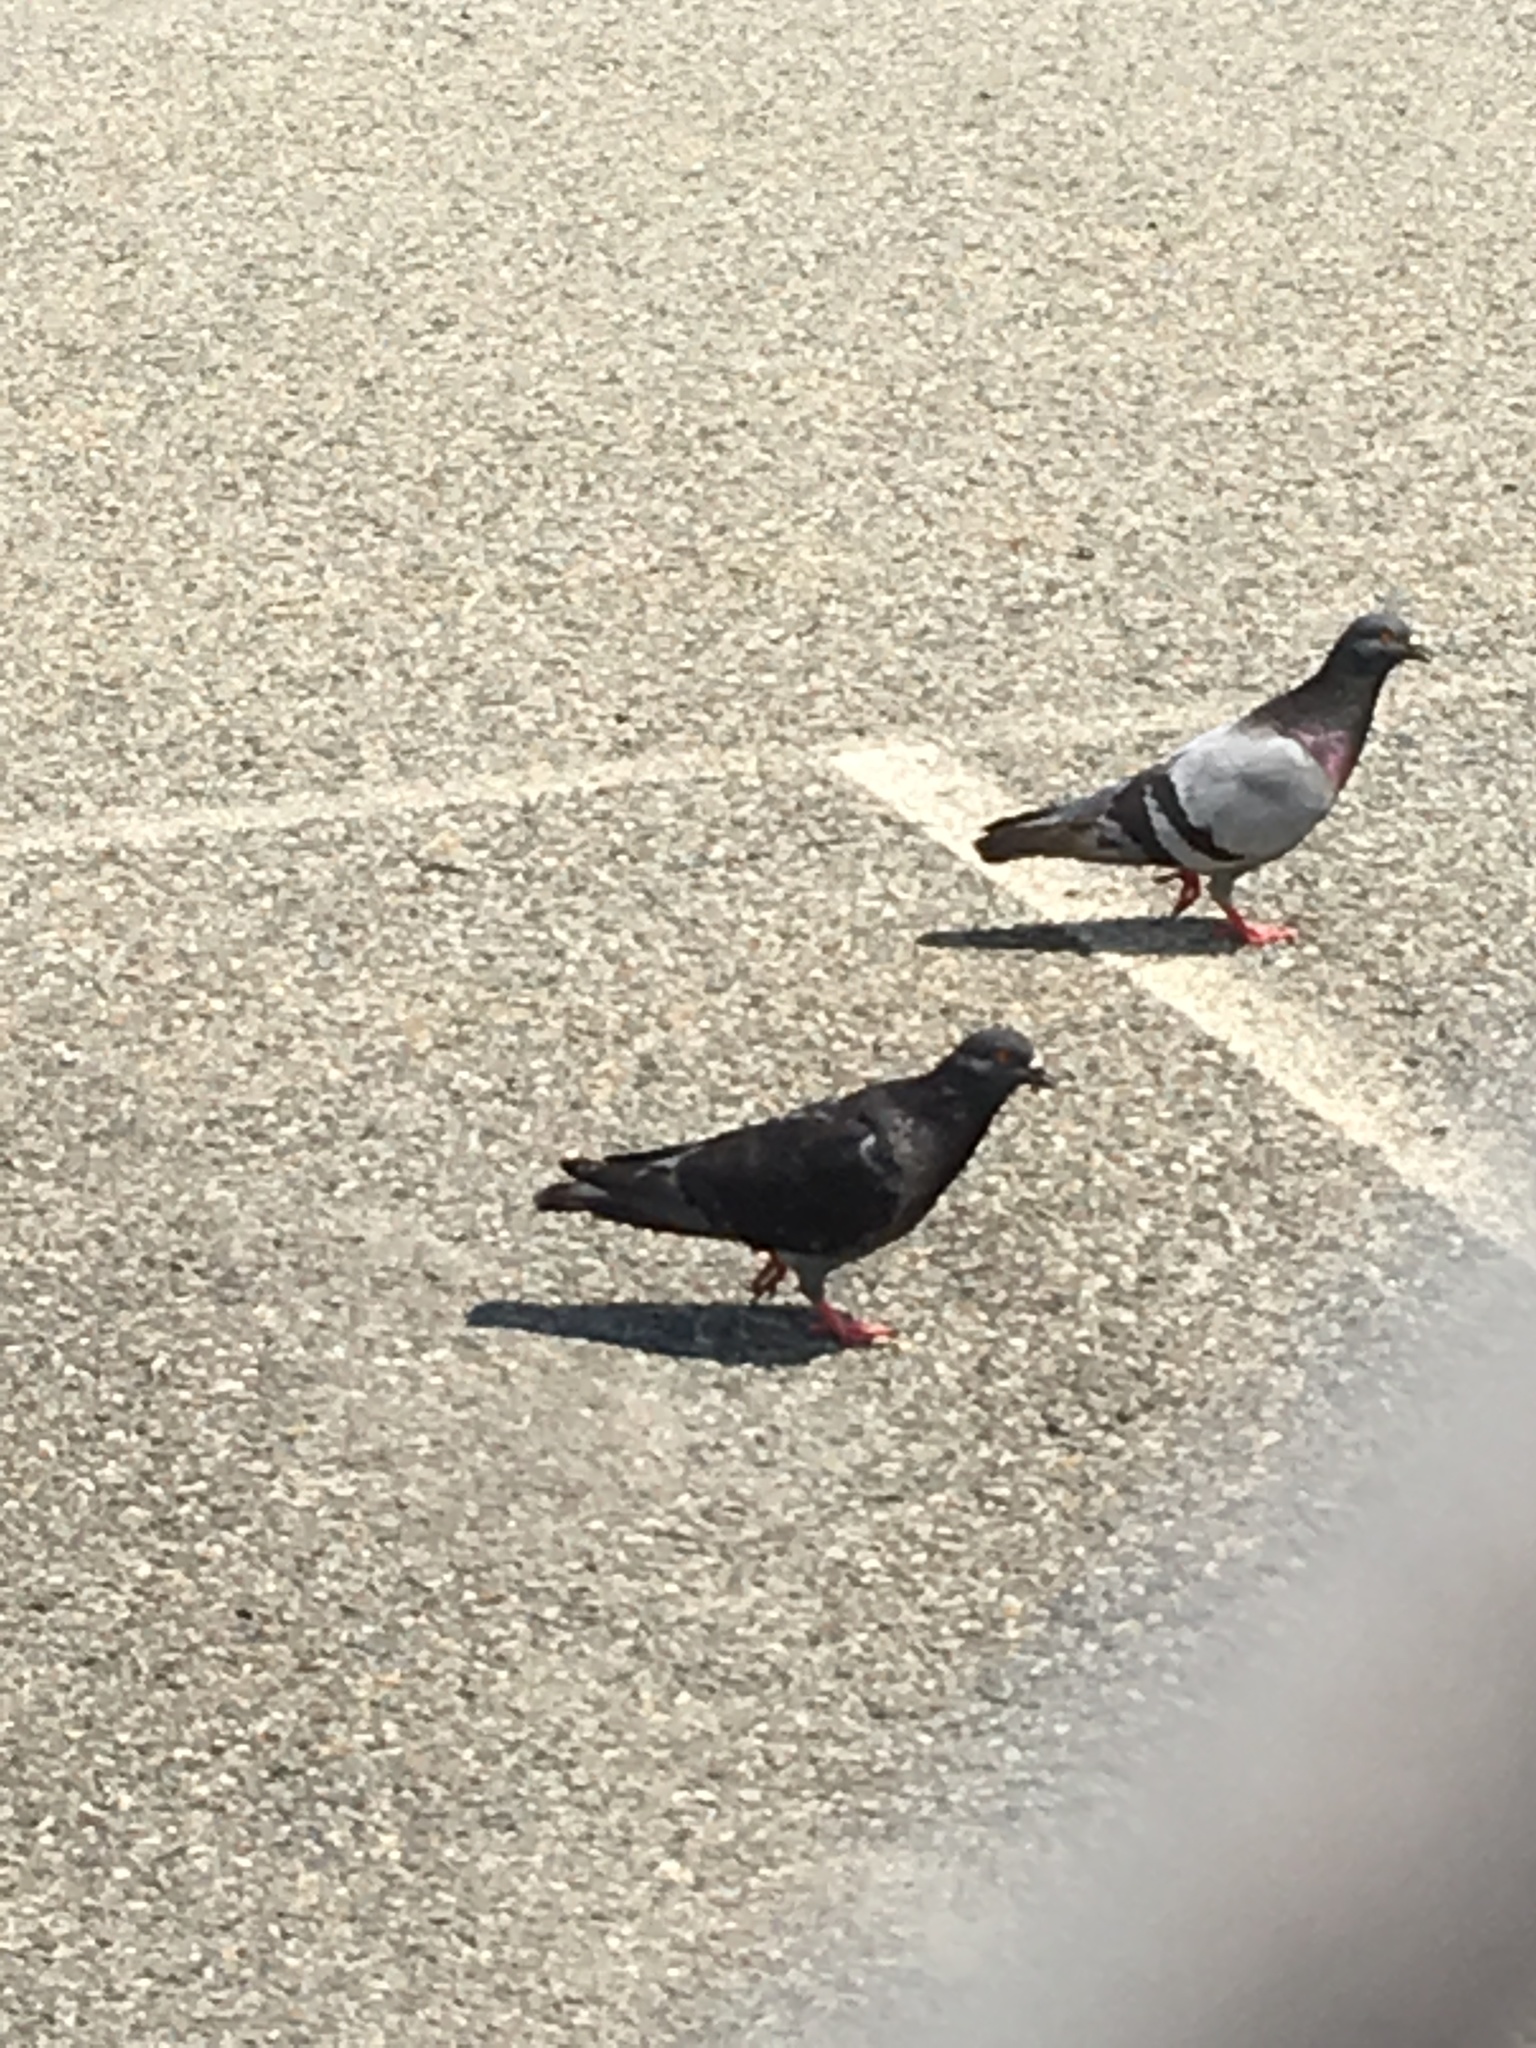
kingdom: Animalia
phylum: Chordata
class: Aves
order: Columbiformes
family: Columbidae
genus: Columba
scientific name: Columba livia
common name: Rock pigeon
